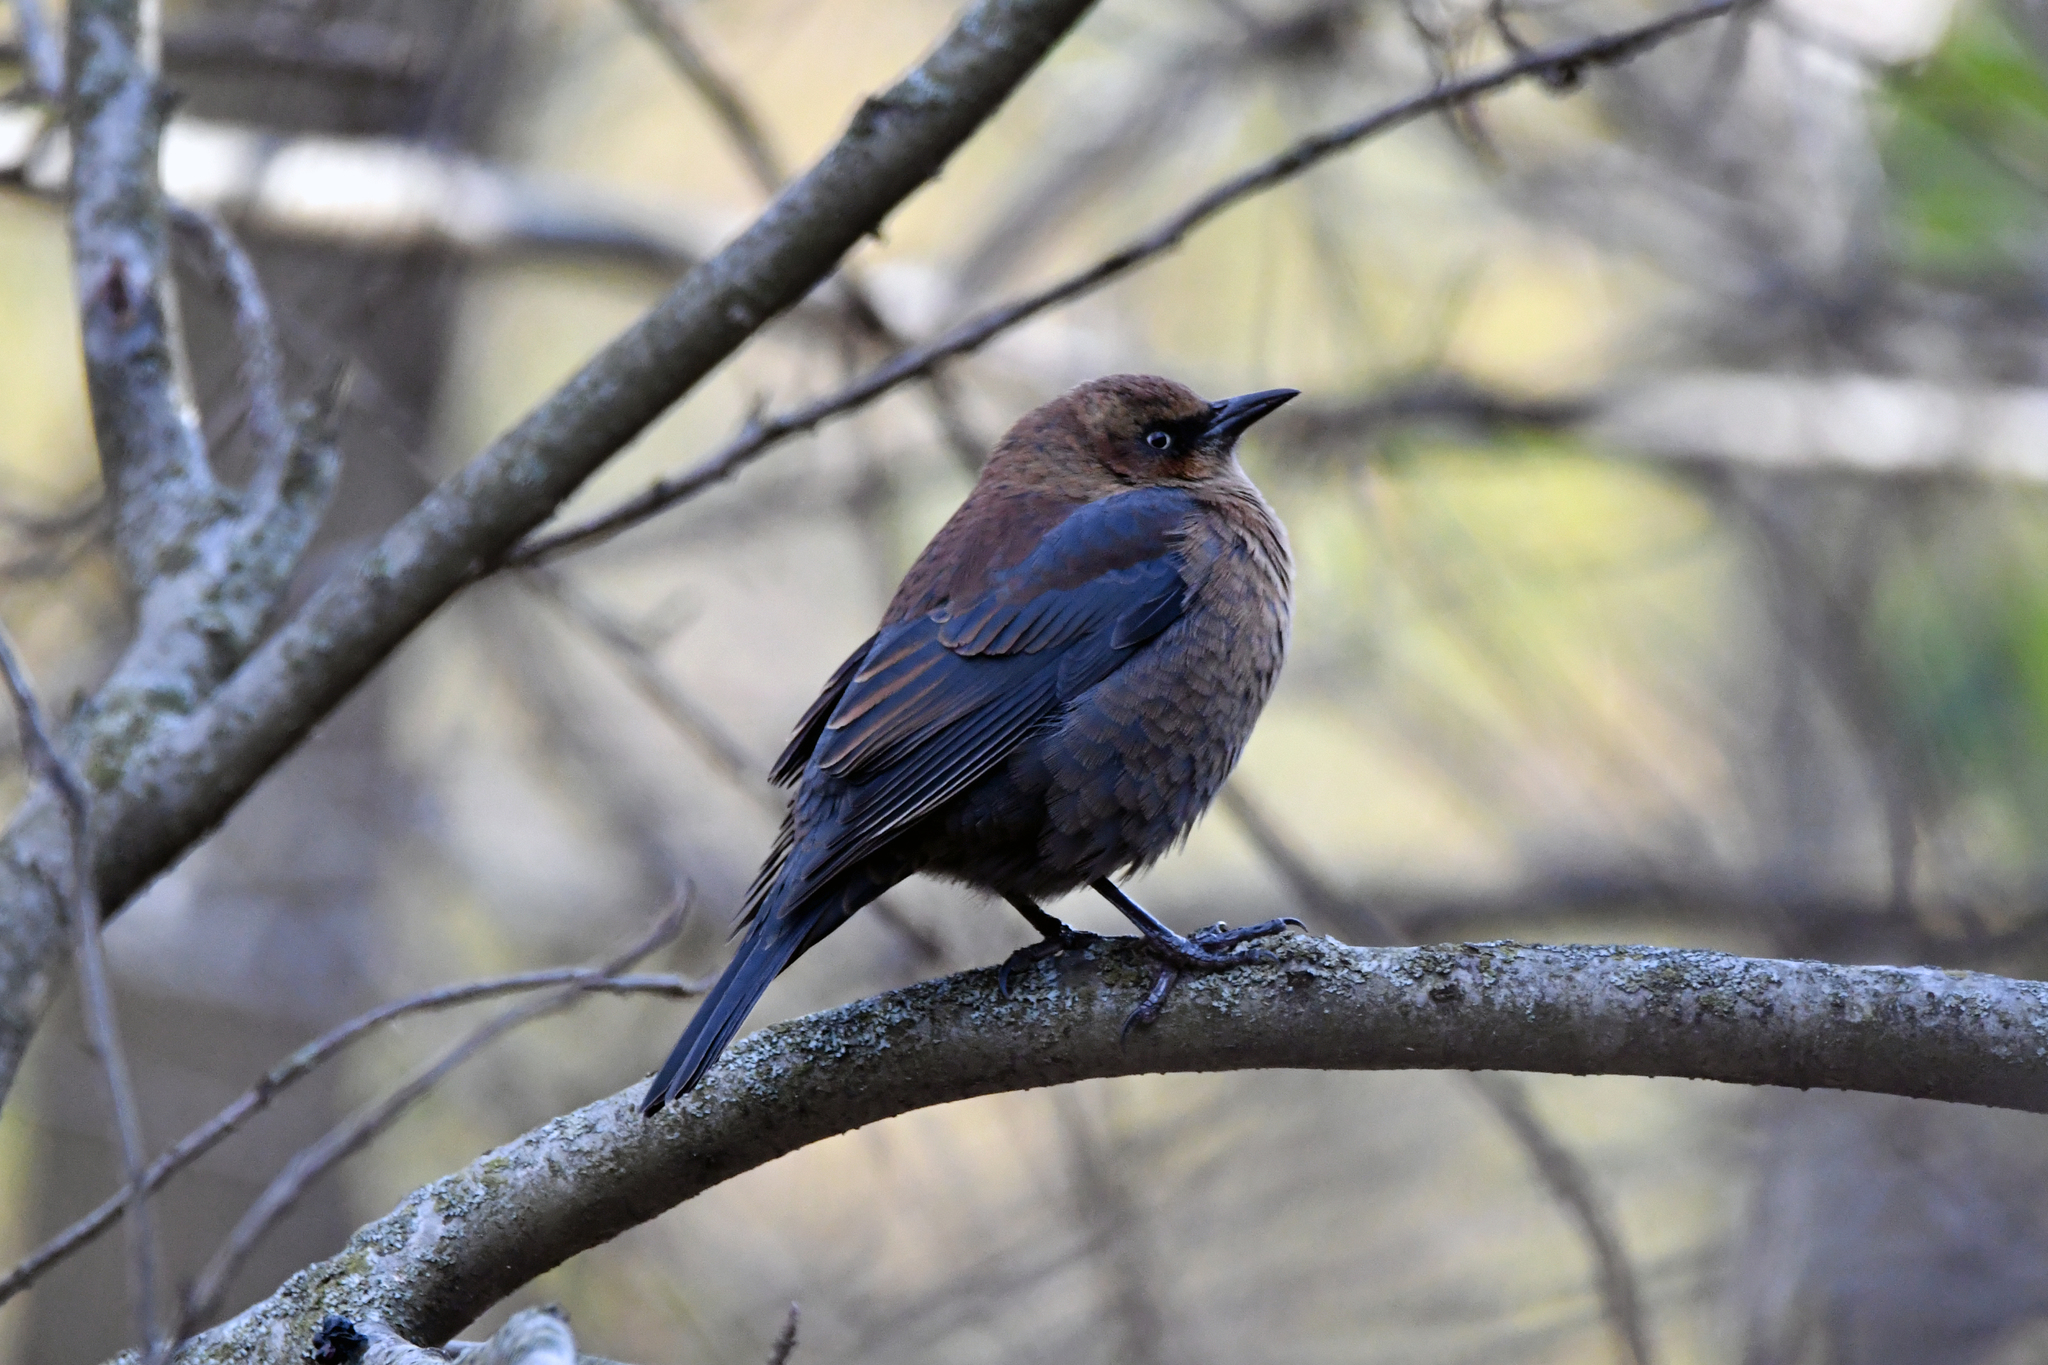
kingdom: Animalia
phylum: Chordata
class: Aves
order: Passeriformes
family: Icteridae
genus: Euphagus
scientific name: Euphagus carolinus
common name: Rusty blackbird
